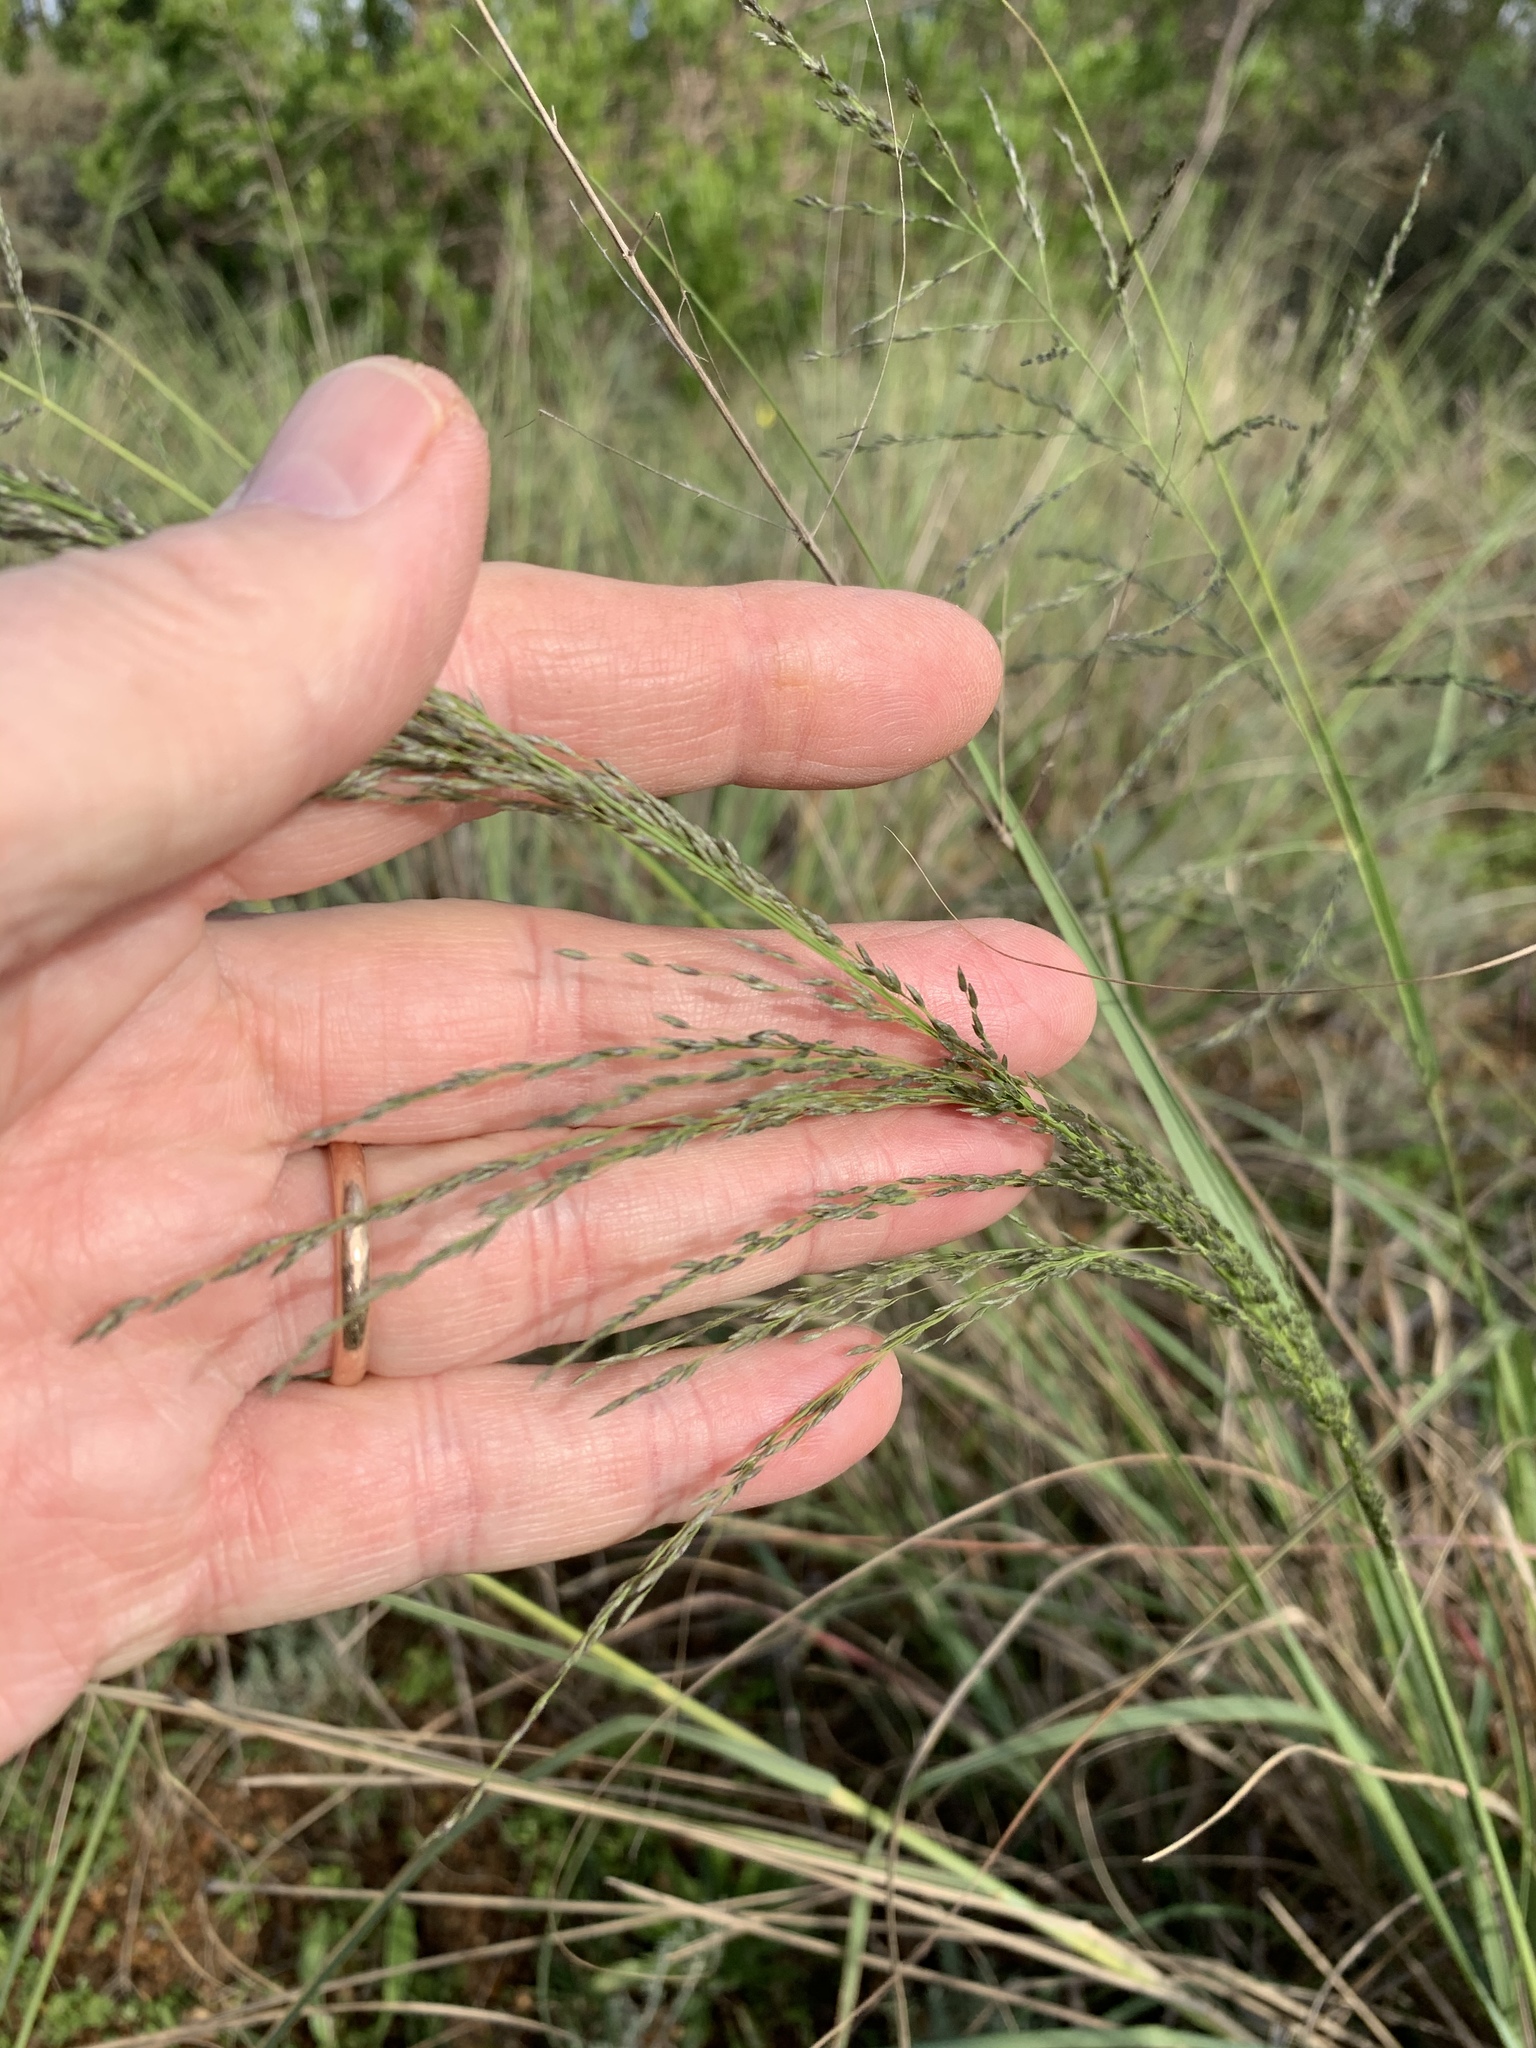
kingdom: Plantae
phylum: Tracheophyta
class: Liliopsida
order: Poales
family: Poaceae
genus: Eragrostis
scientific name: Eragrostis curvula
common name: African love-grass
